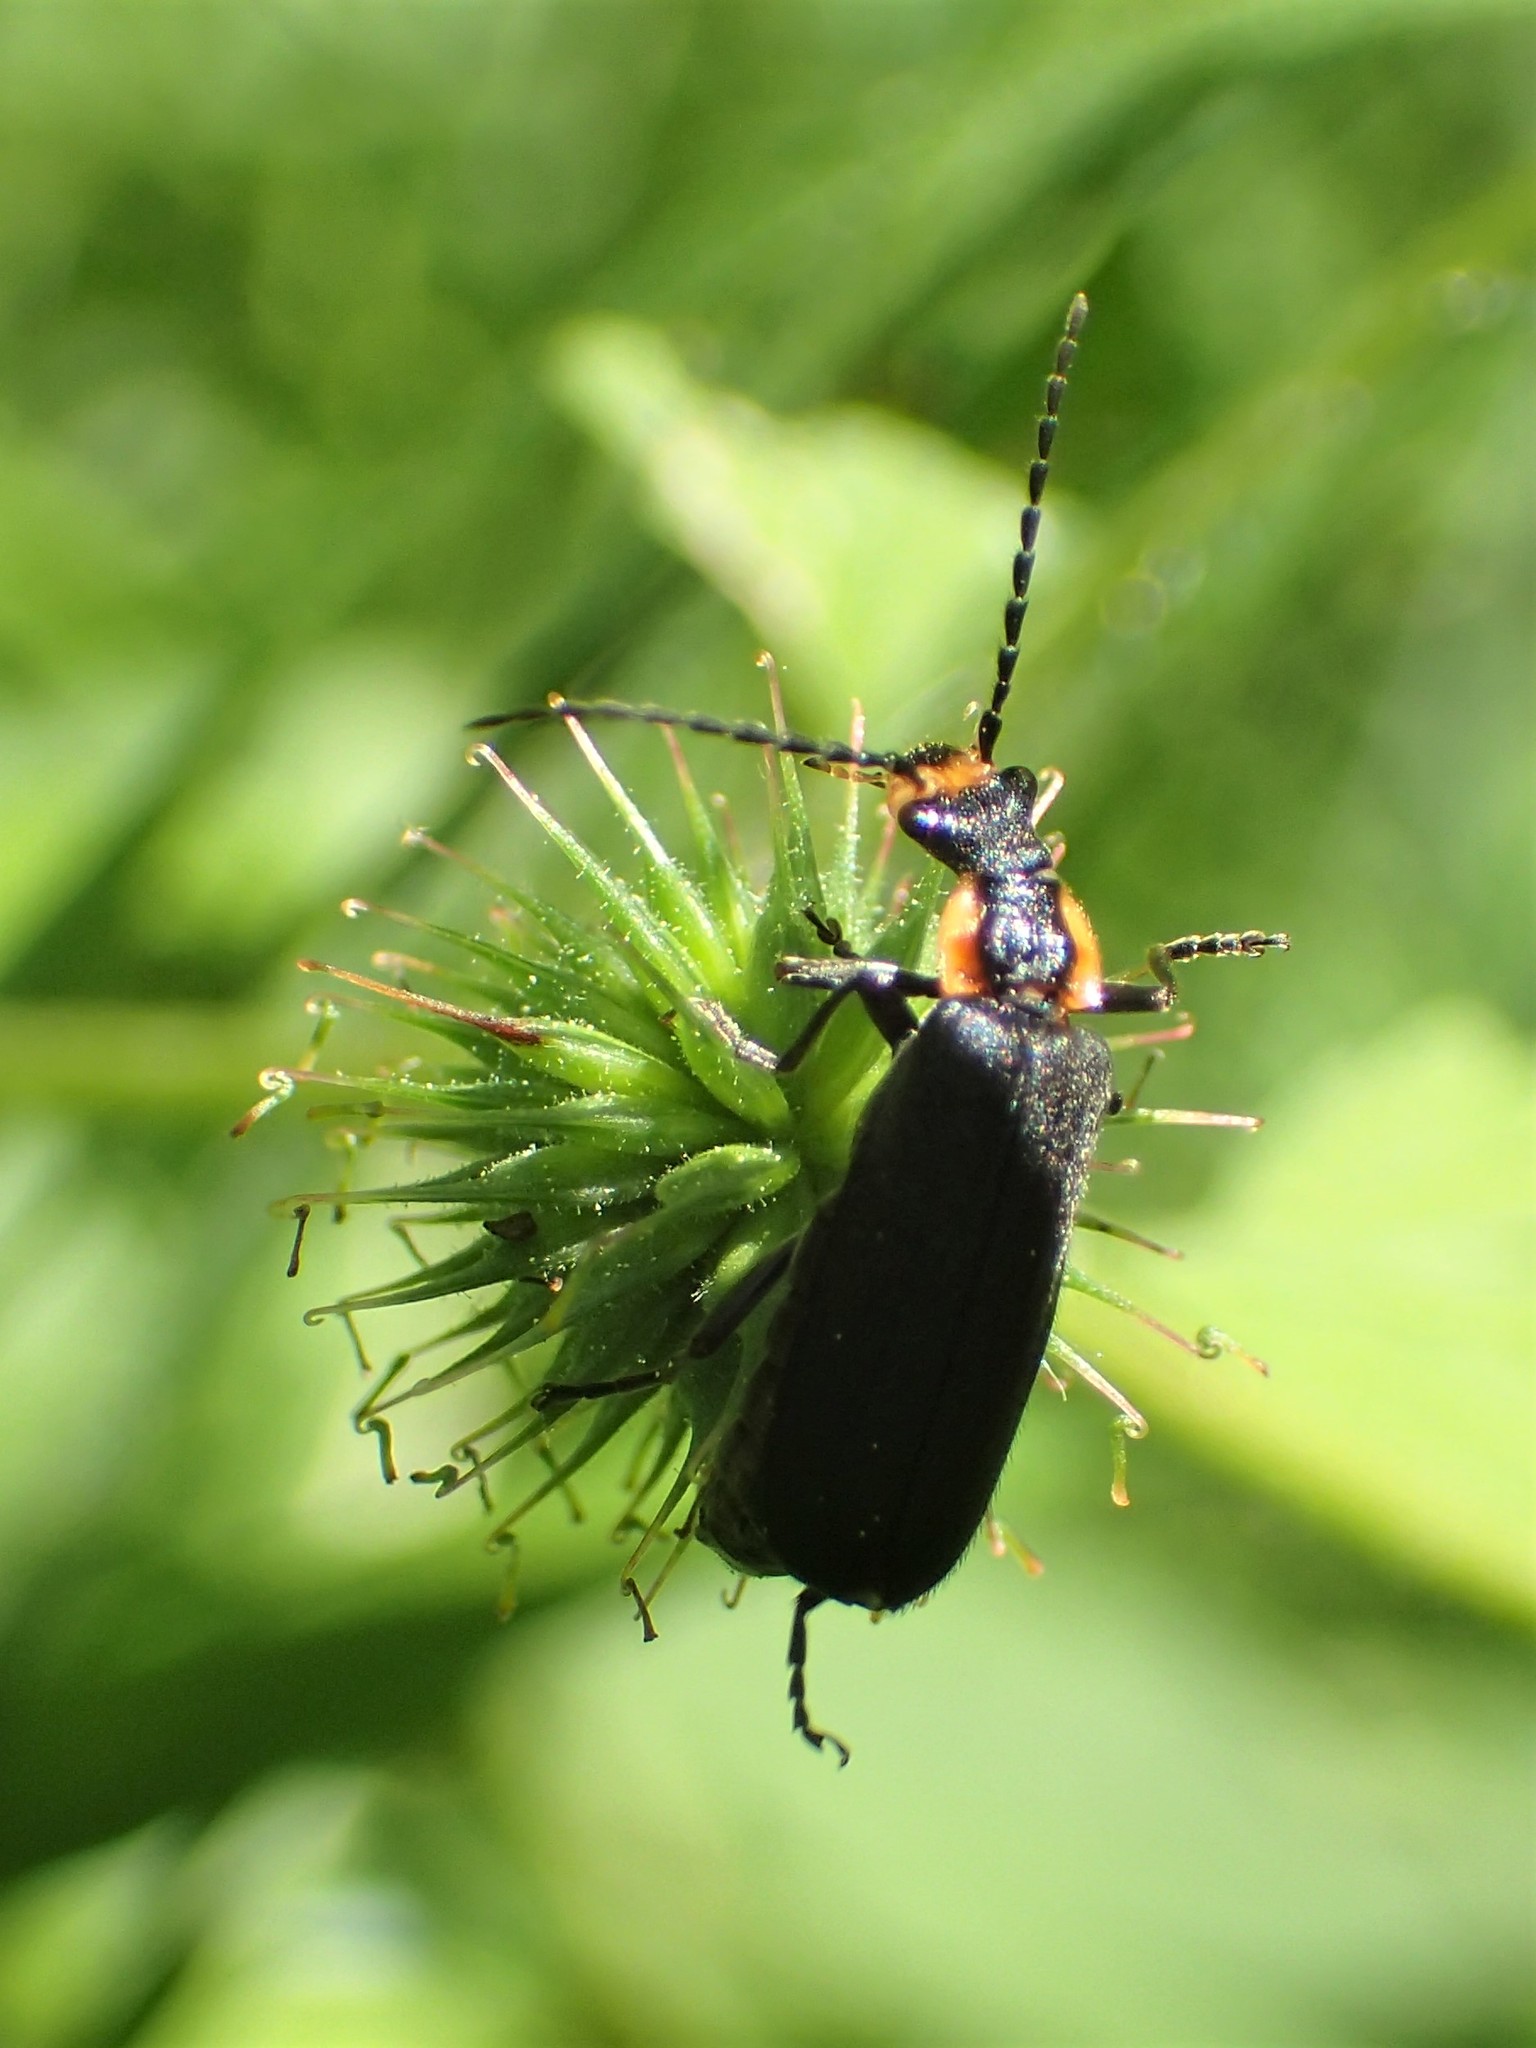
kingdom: Animalia
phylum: Arthropoda
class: Insecta
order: Coleoptera
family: Cantharidae
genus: Podabrus
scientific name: Podabrus rugosulus
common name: Wrinkled soldier beetle
